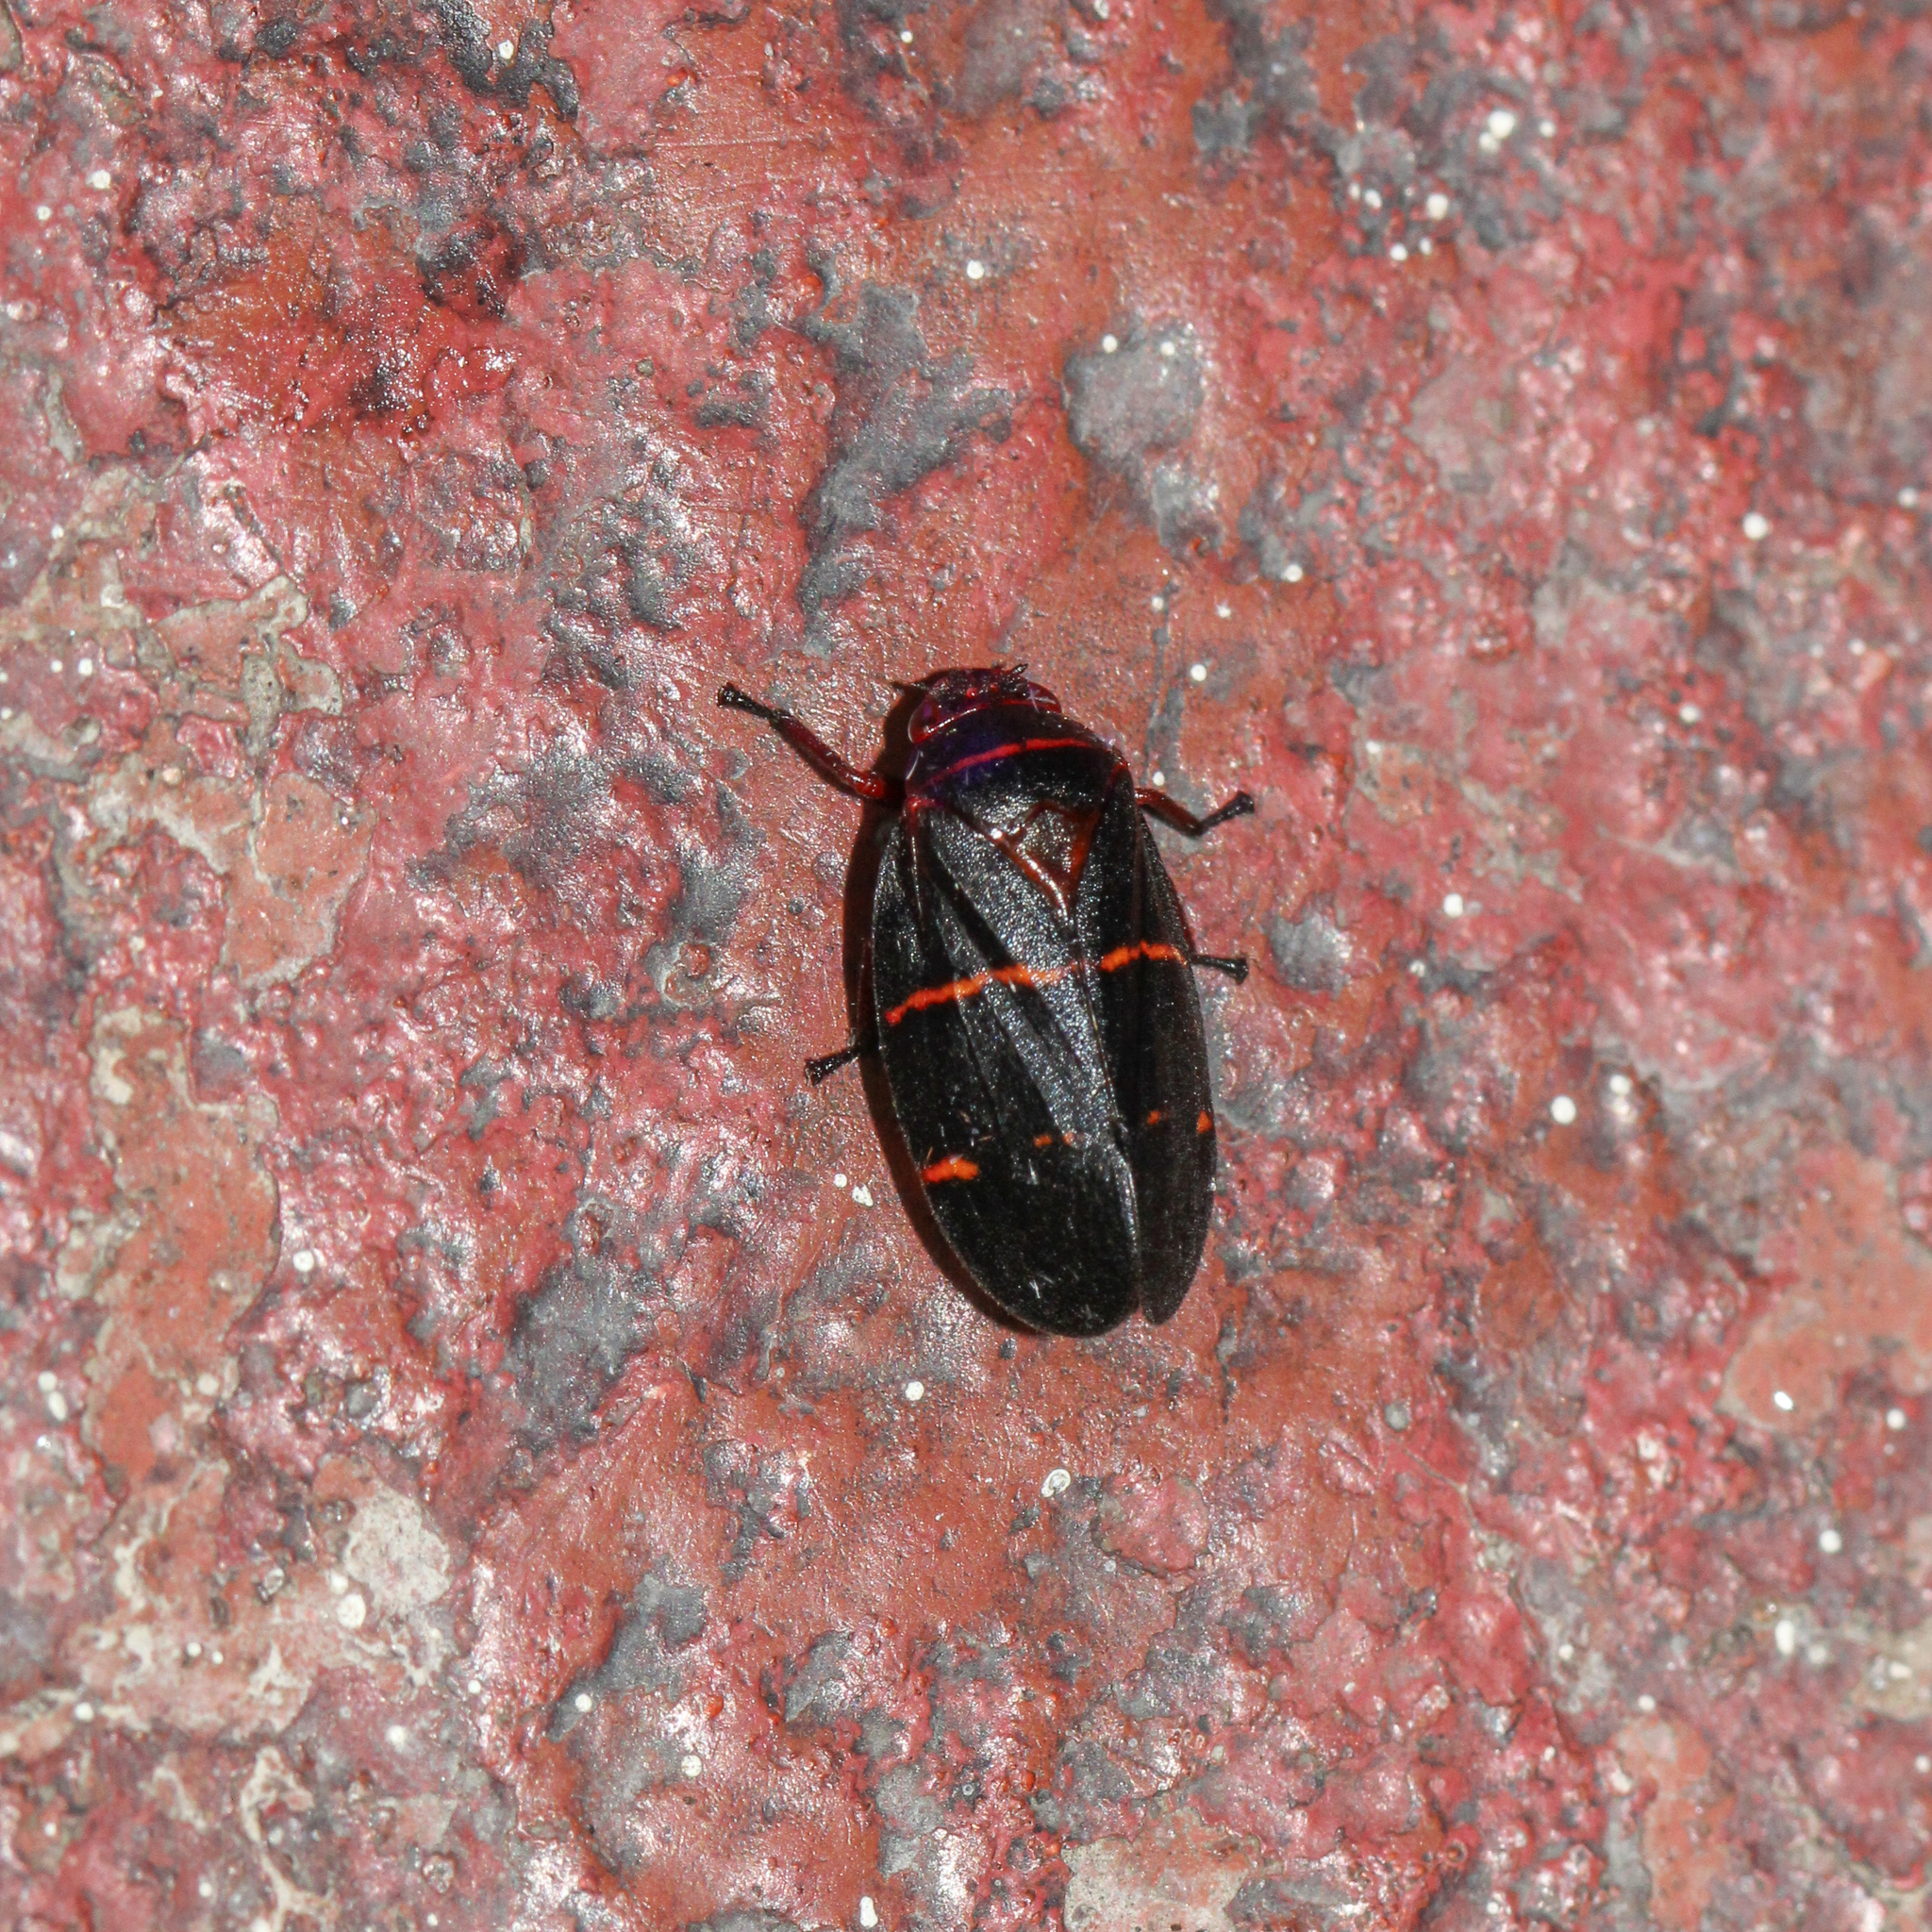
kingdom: Animalia
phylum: Arthropoda
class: Insecta
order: Hemiptera
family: Cercopidae
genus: Prosapia
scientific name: Prosapia bicincta
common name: Twolined spittlebug
